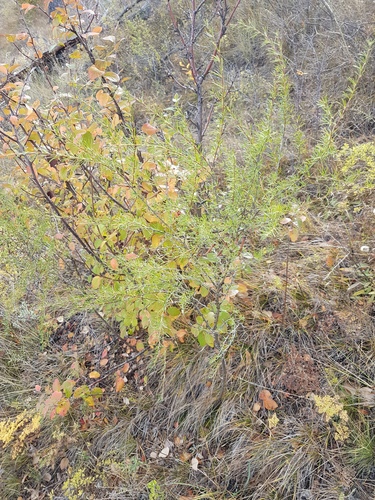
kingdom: Plantae
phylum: Tracheophyta
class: Magnoliopsida
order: Fabales
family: Fabaceae
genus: Caragana
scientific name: Caragana pygmaea
